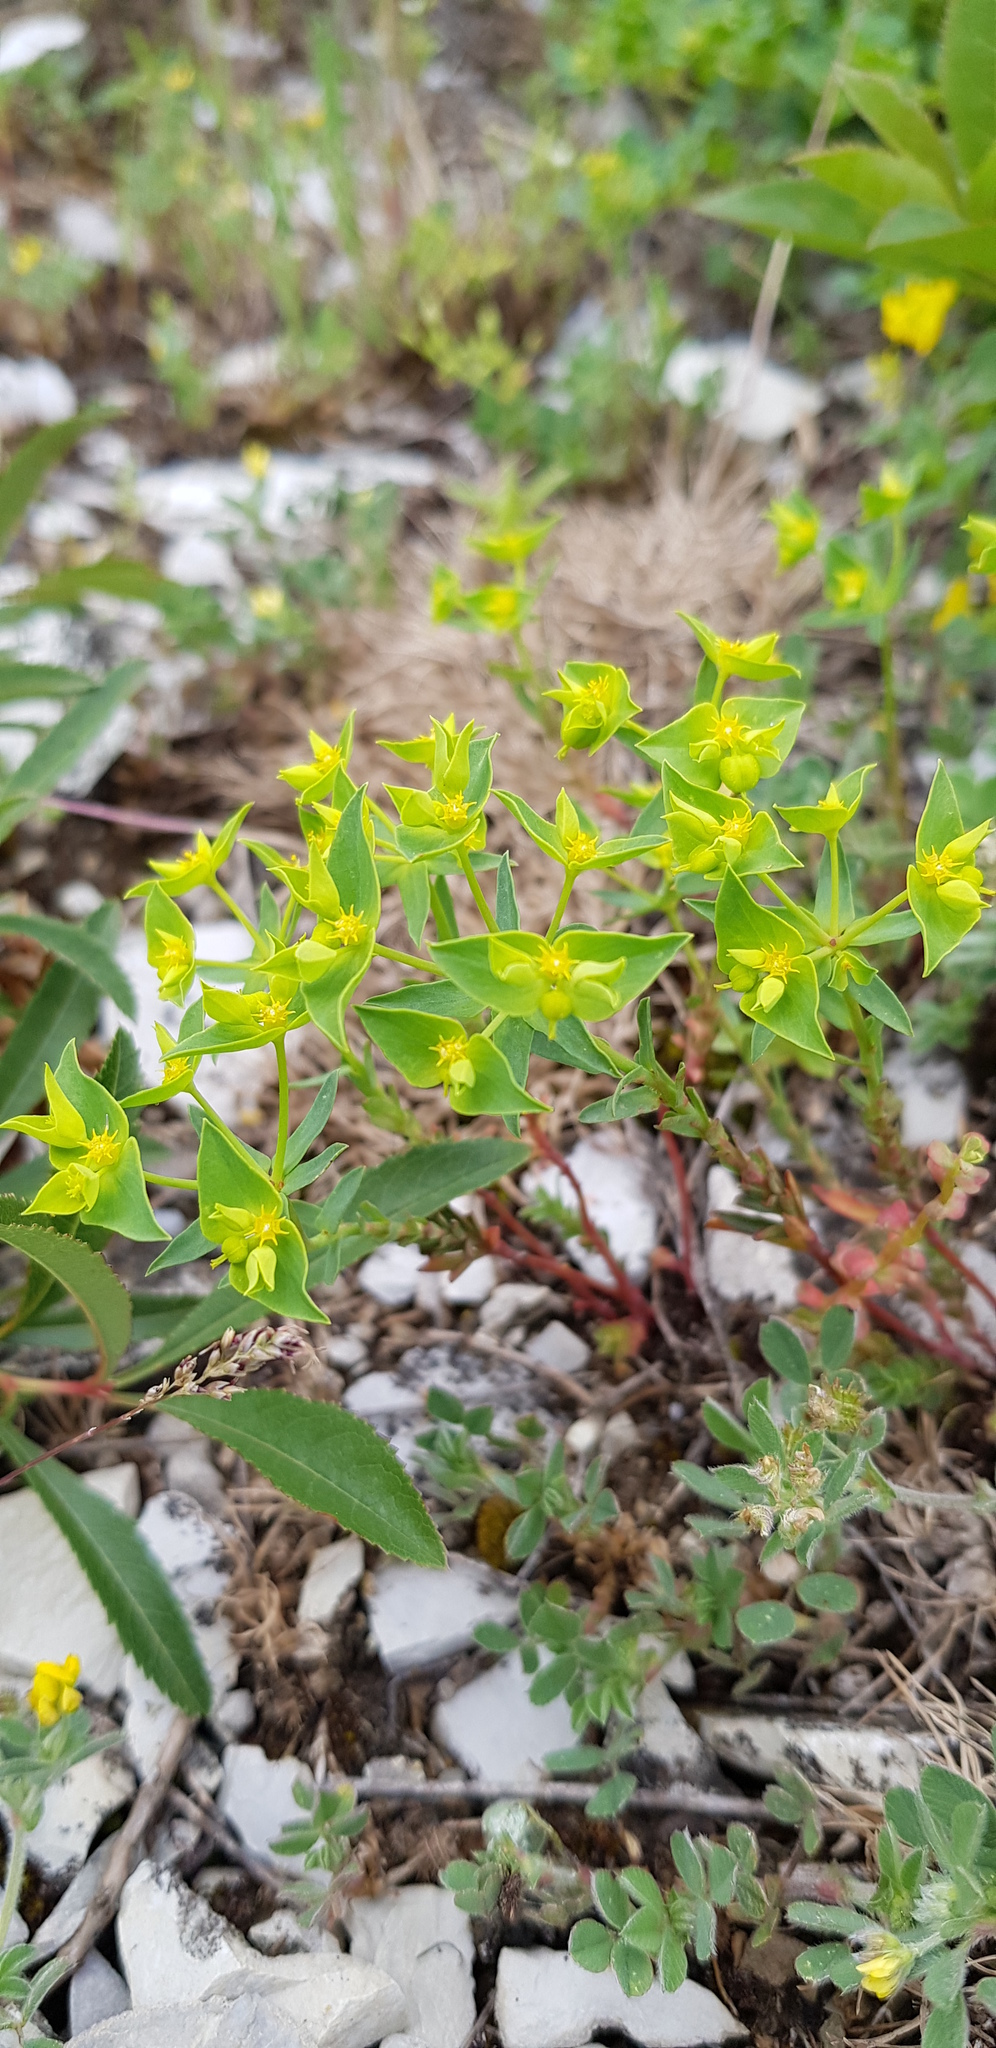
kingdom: Plantae
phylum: Tracheophyta
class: Magnoliopsida
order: Malpighiales
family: Euphorbiaceae
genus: Euphorbia
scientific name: Euphorbia taurinensis
